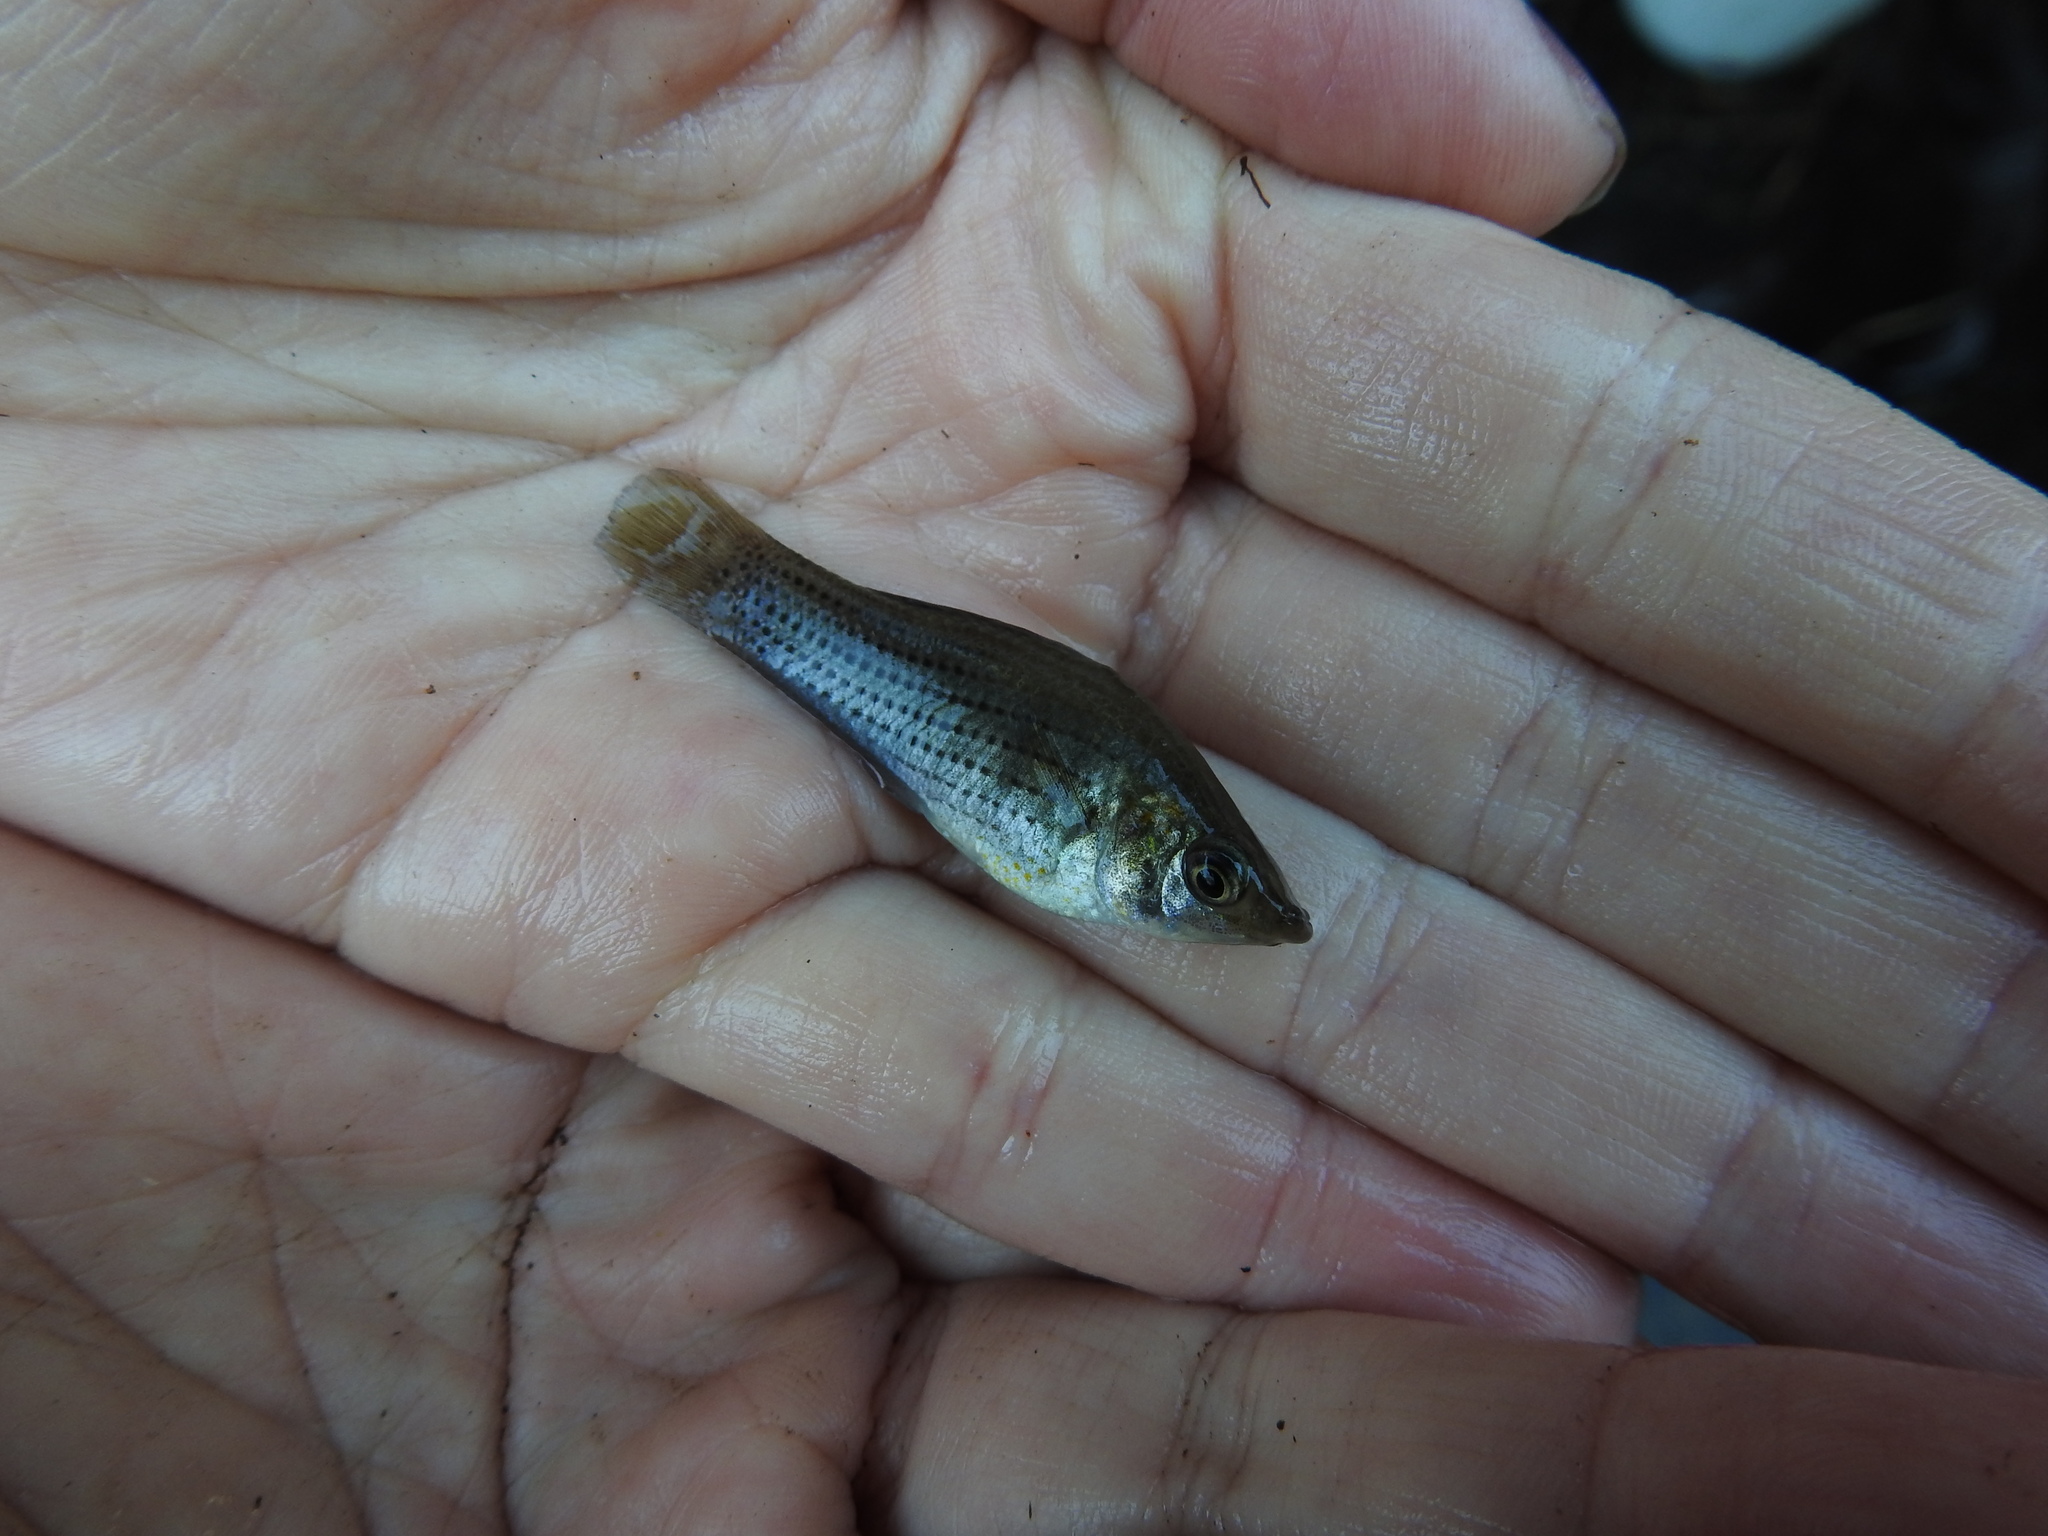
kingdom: Animalia
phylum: Chordata
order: Cyprinodontiformes
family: Poeciliidae
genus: Poecilia
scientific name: Poecilia latipinna
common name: Sailfin molly
